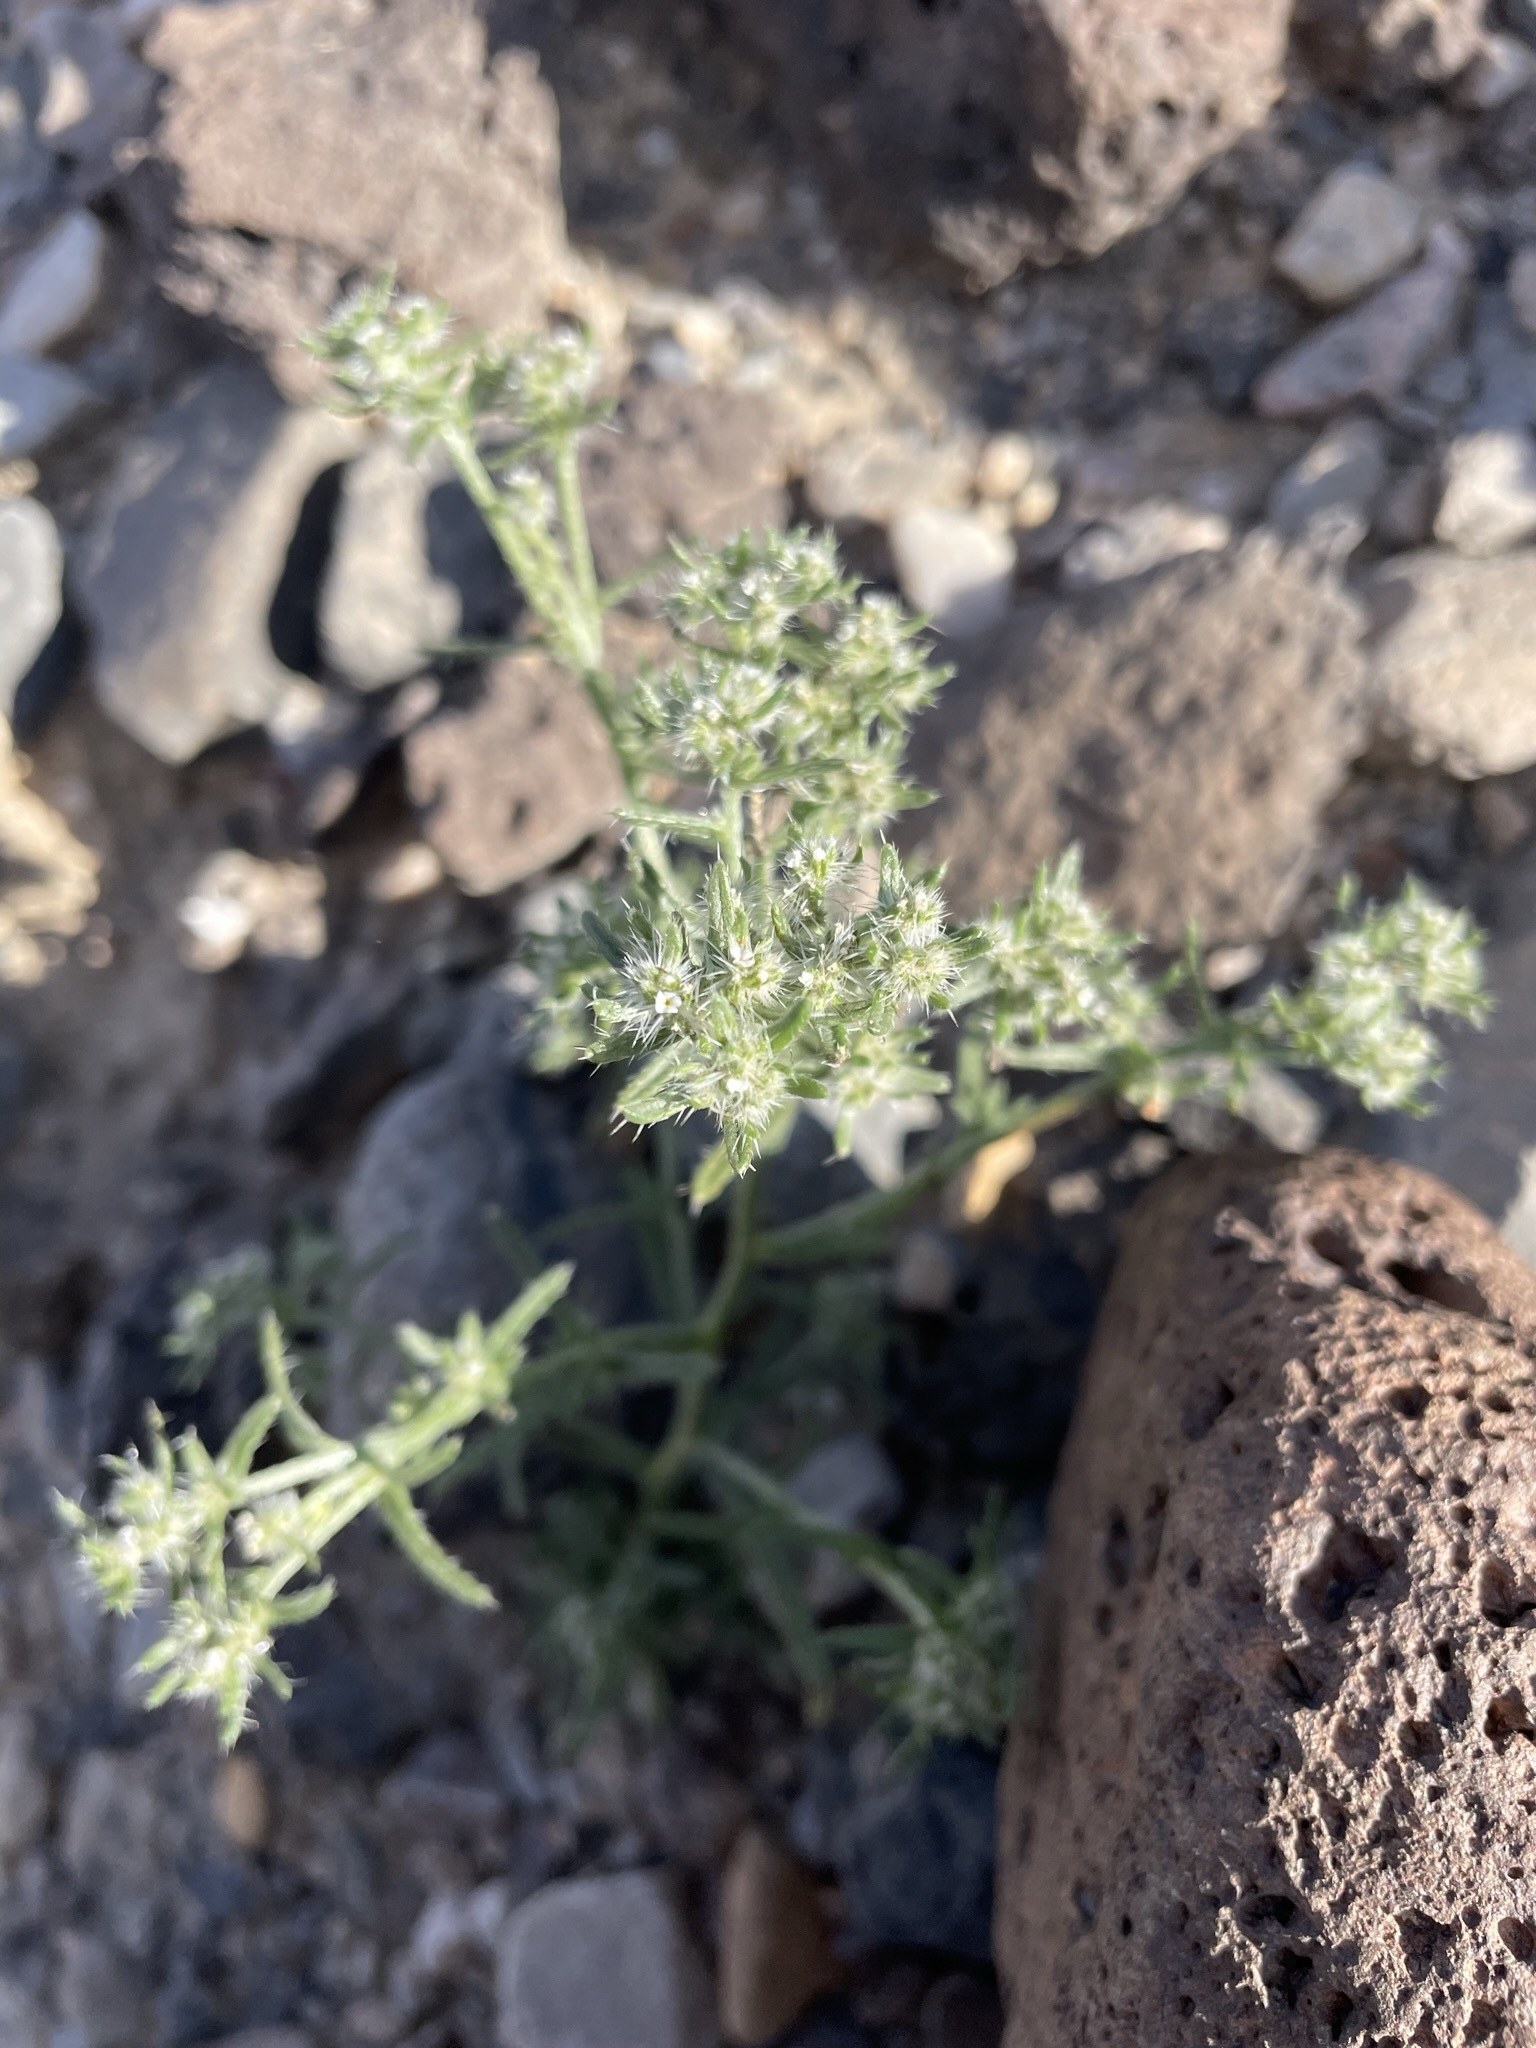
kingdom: Plantae
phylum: Tracheophyta
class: Magnoliopsida
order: Boraginales
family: Boraginaceae
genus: Cryptantha
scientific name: Cryptantha maritima
